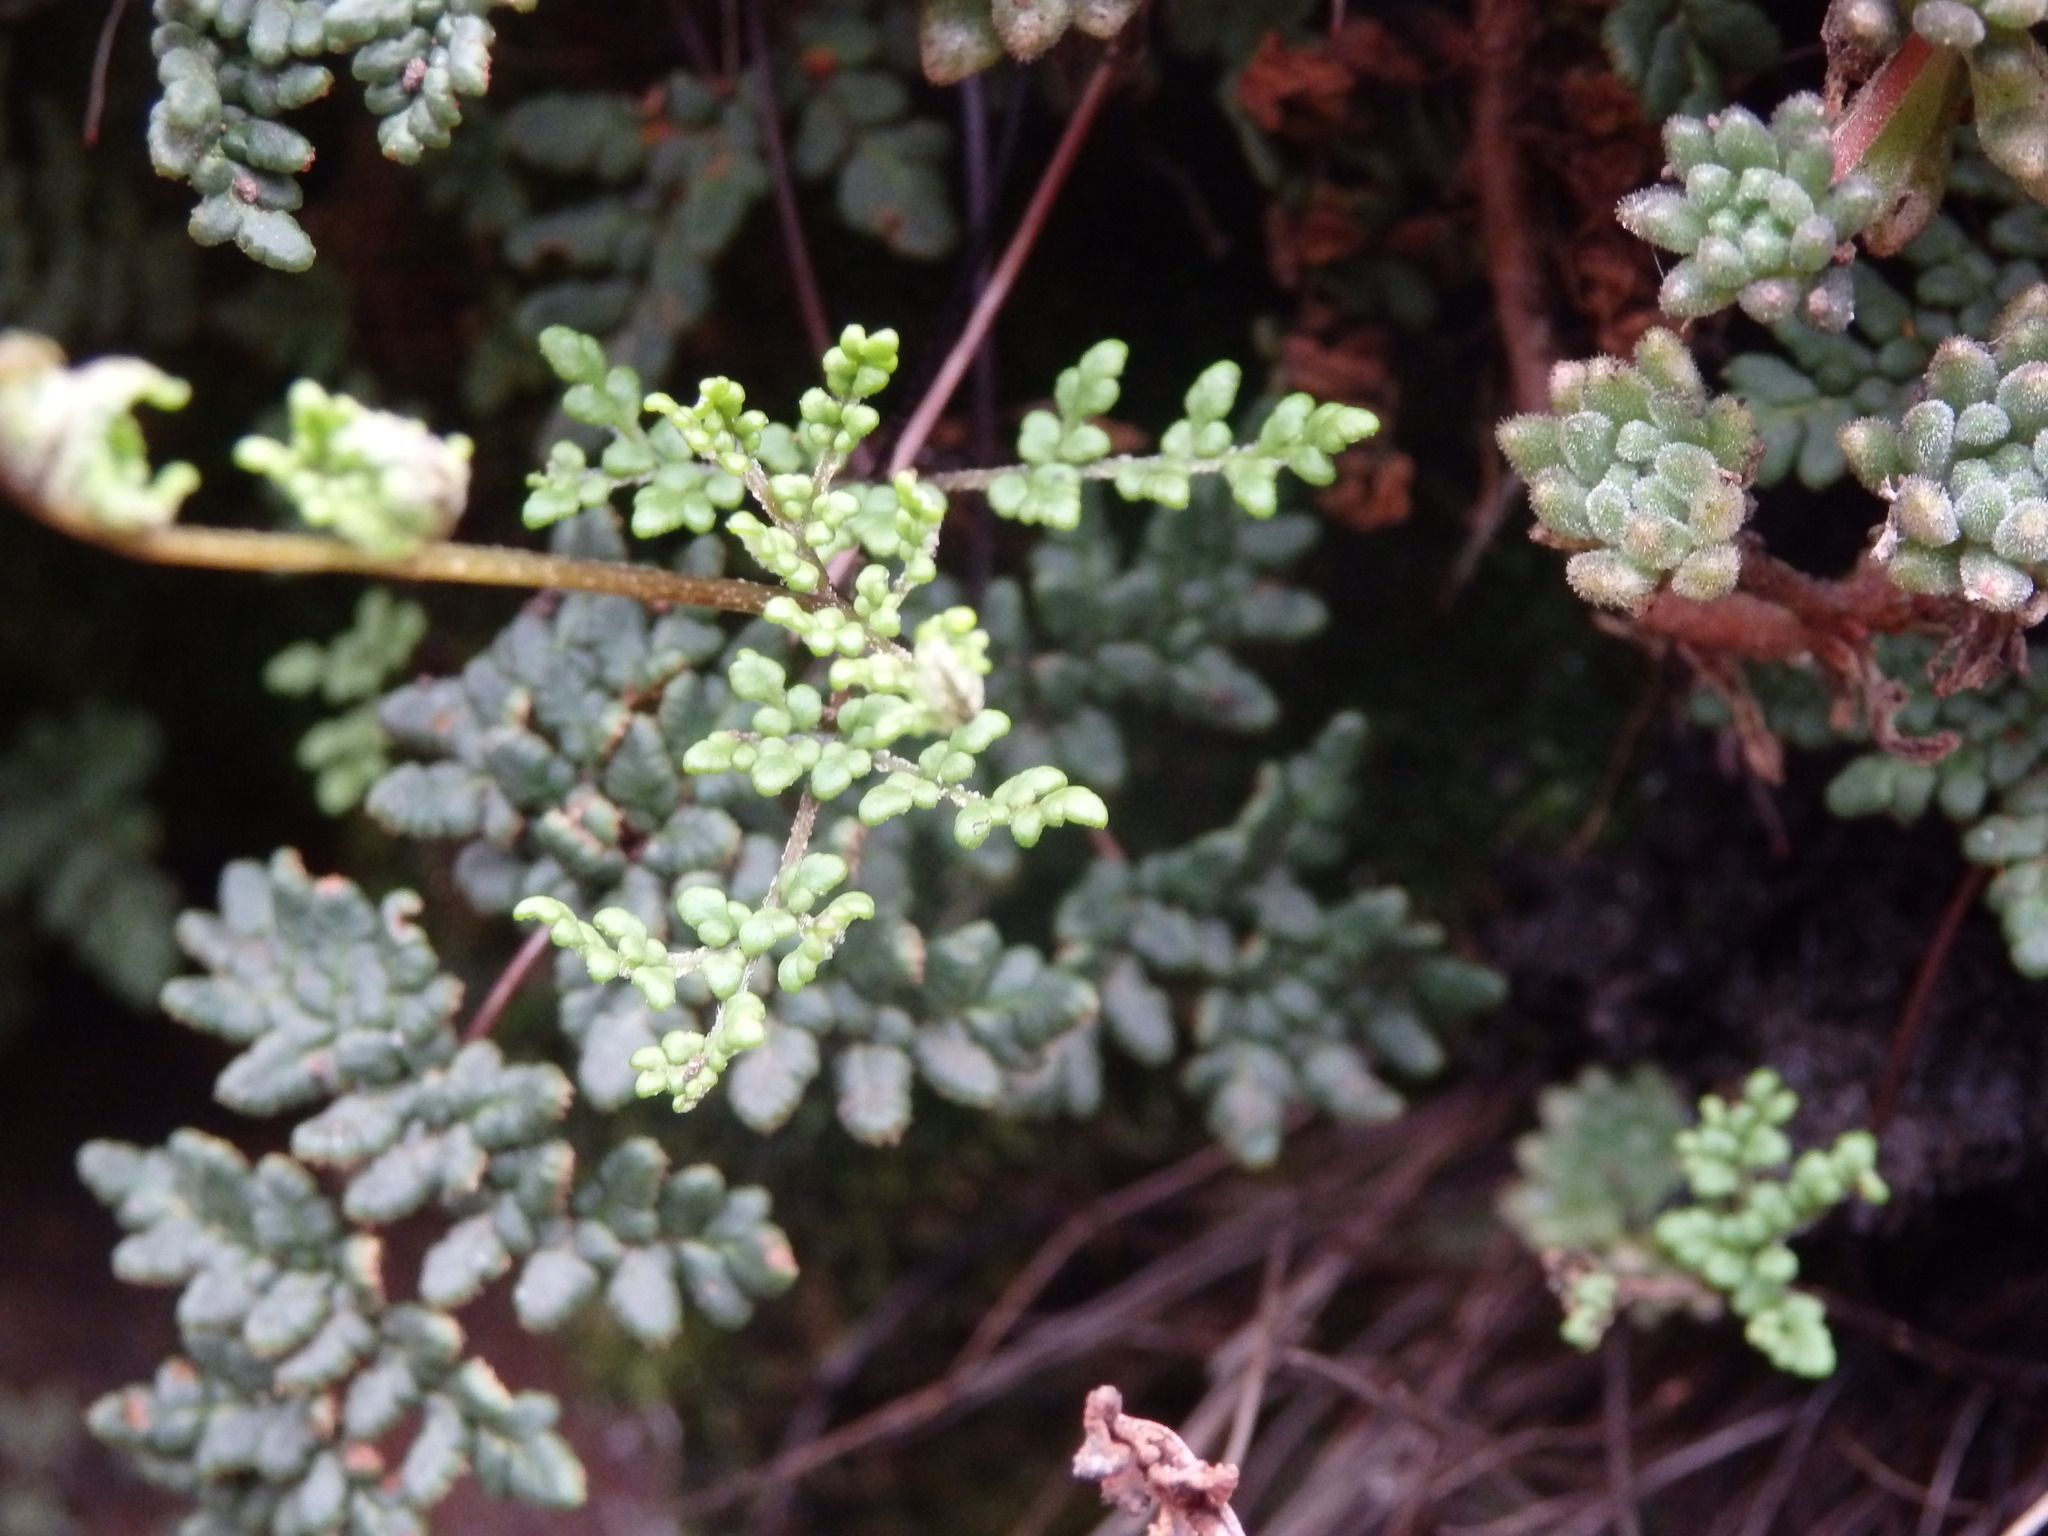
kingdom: Plantae
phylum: Tracheophyta
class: Polypodiopsida
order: Polypodiales
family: Pteridaceae
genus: Oeosporangium
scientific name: Oeosporangium hispanicum
